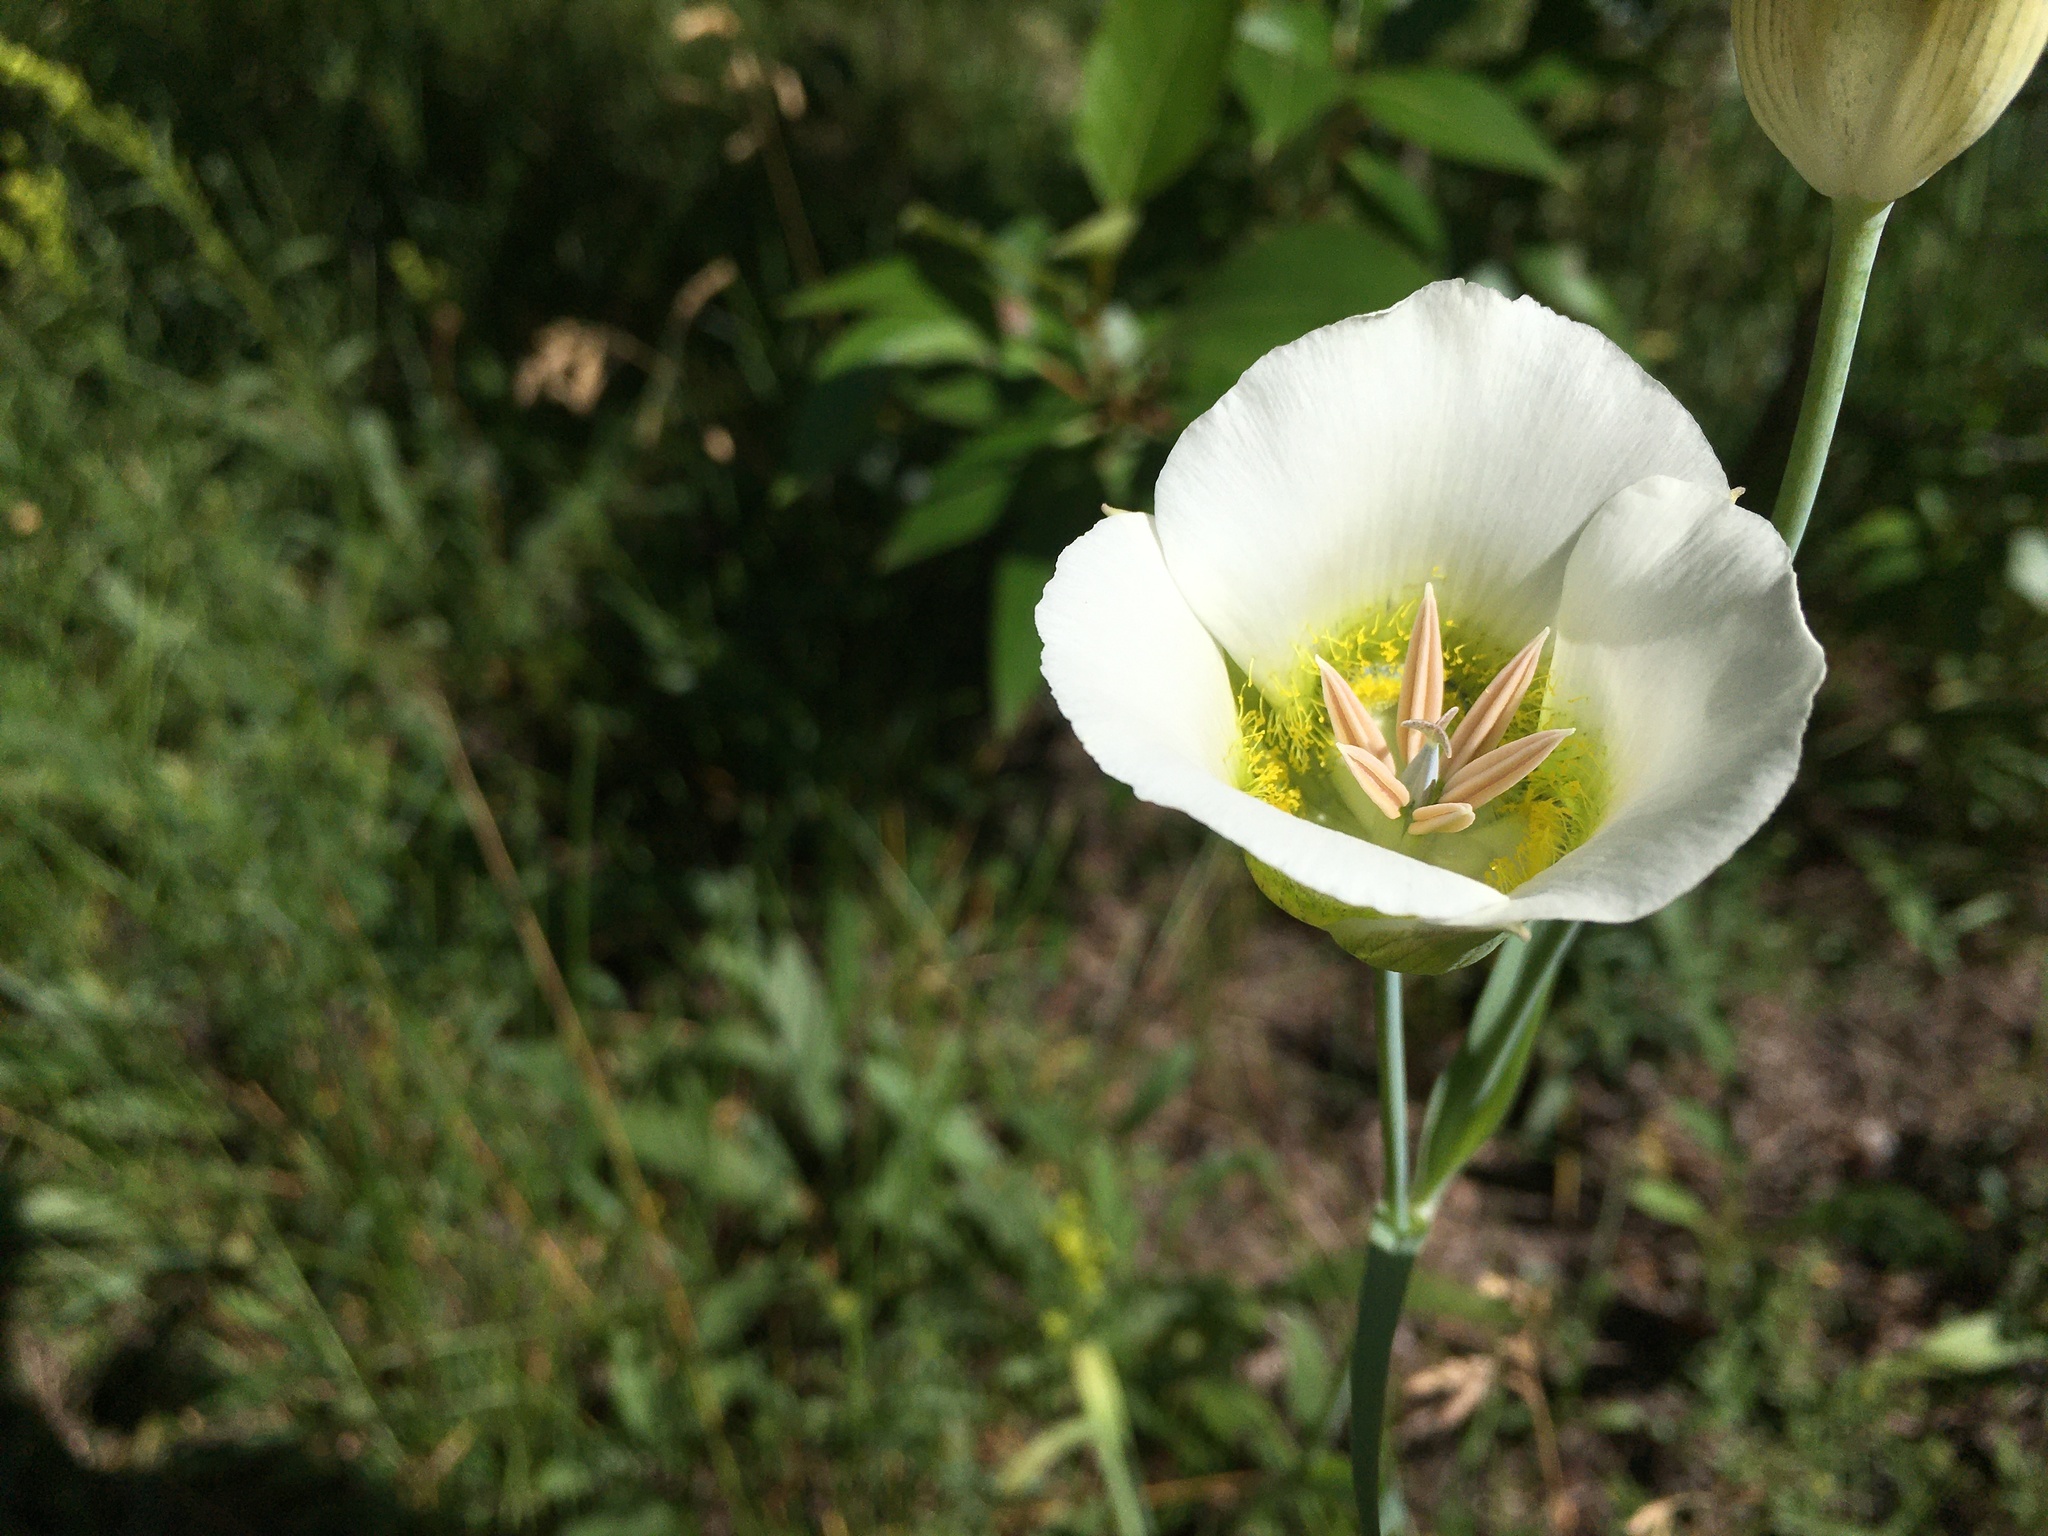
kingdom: Plantae
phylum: Tracheophyta
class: Liliopsida
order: Liliales
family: Liliaceae
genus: Calochortus
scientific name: Calochortus gunnisonii
